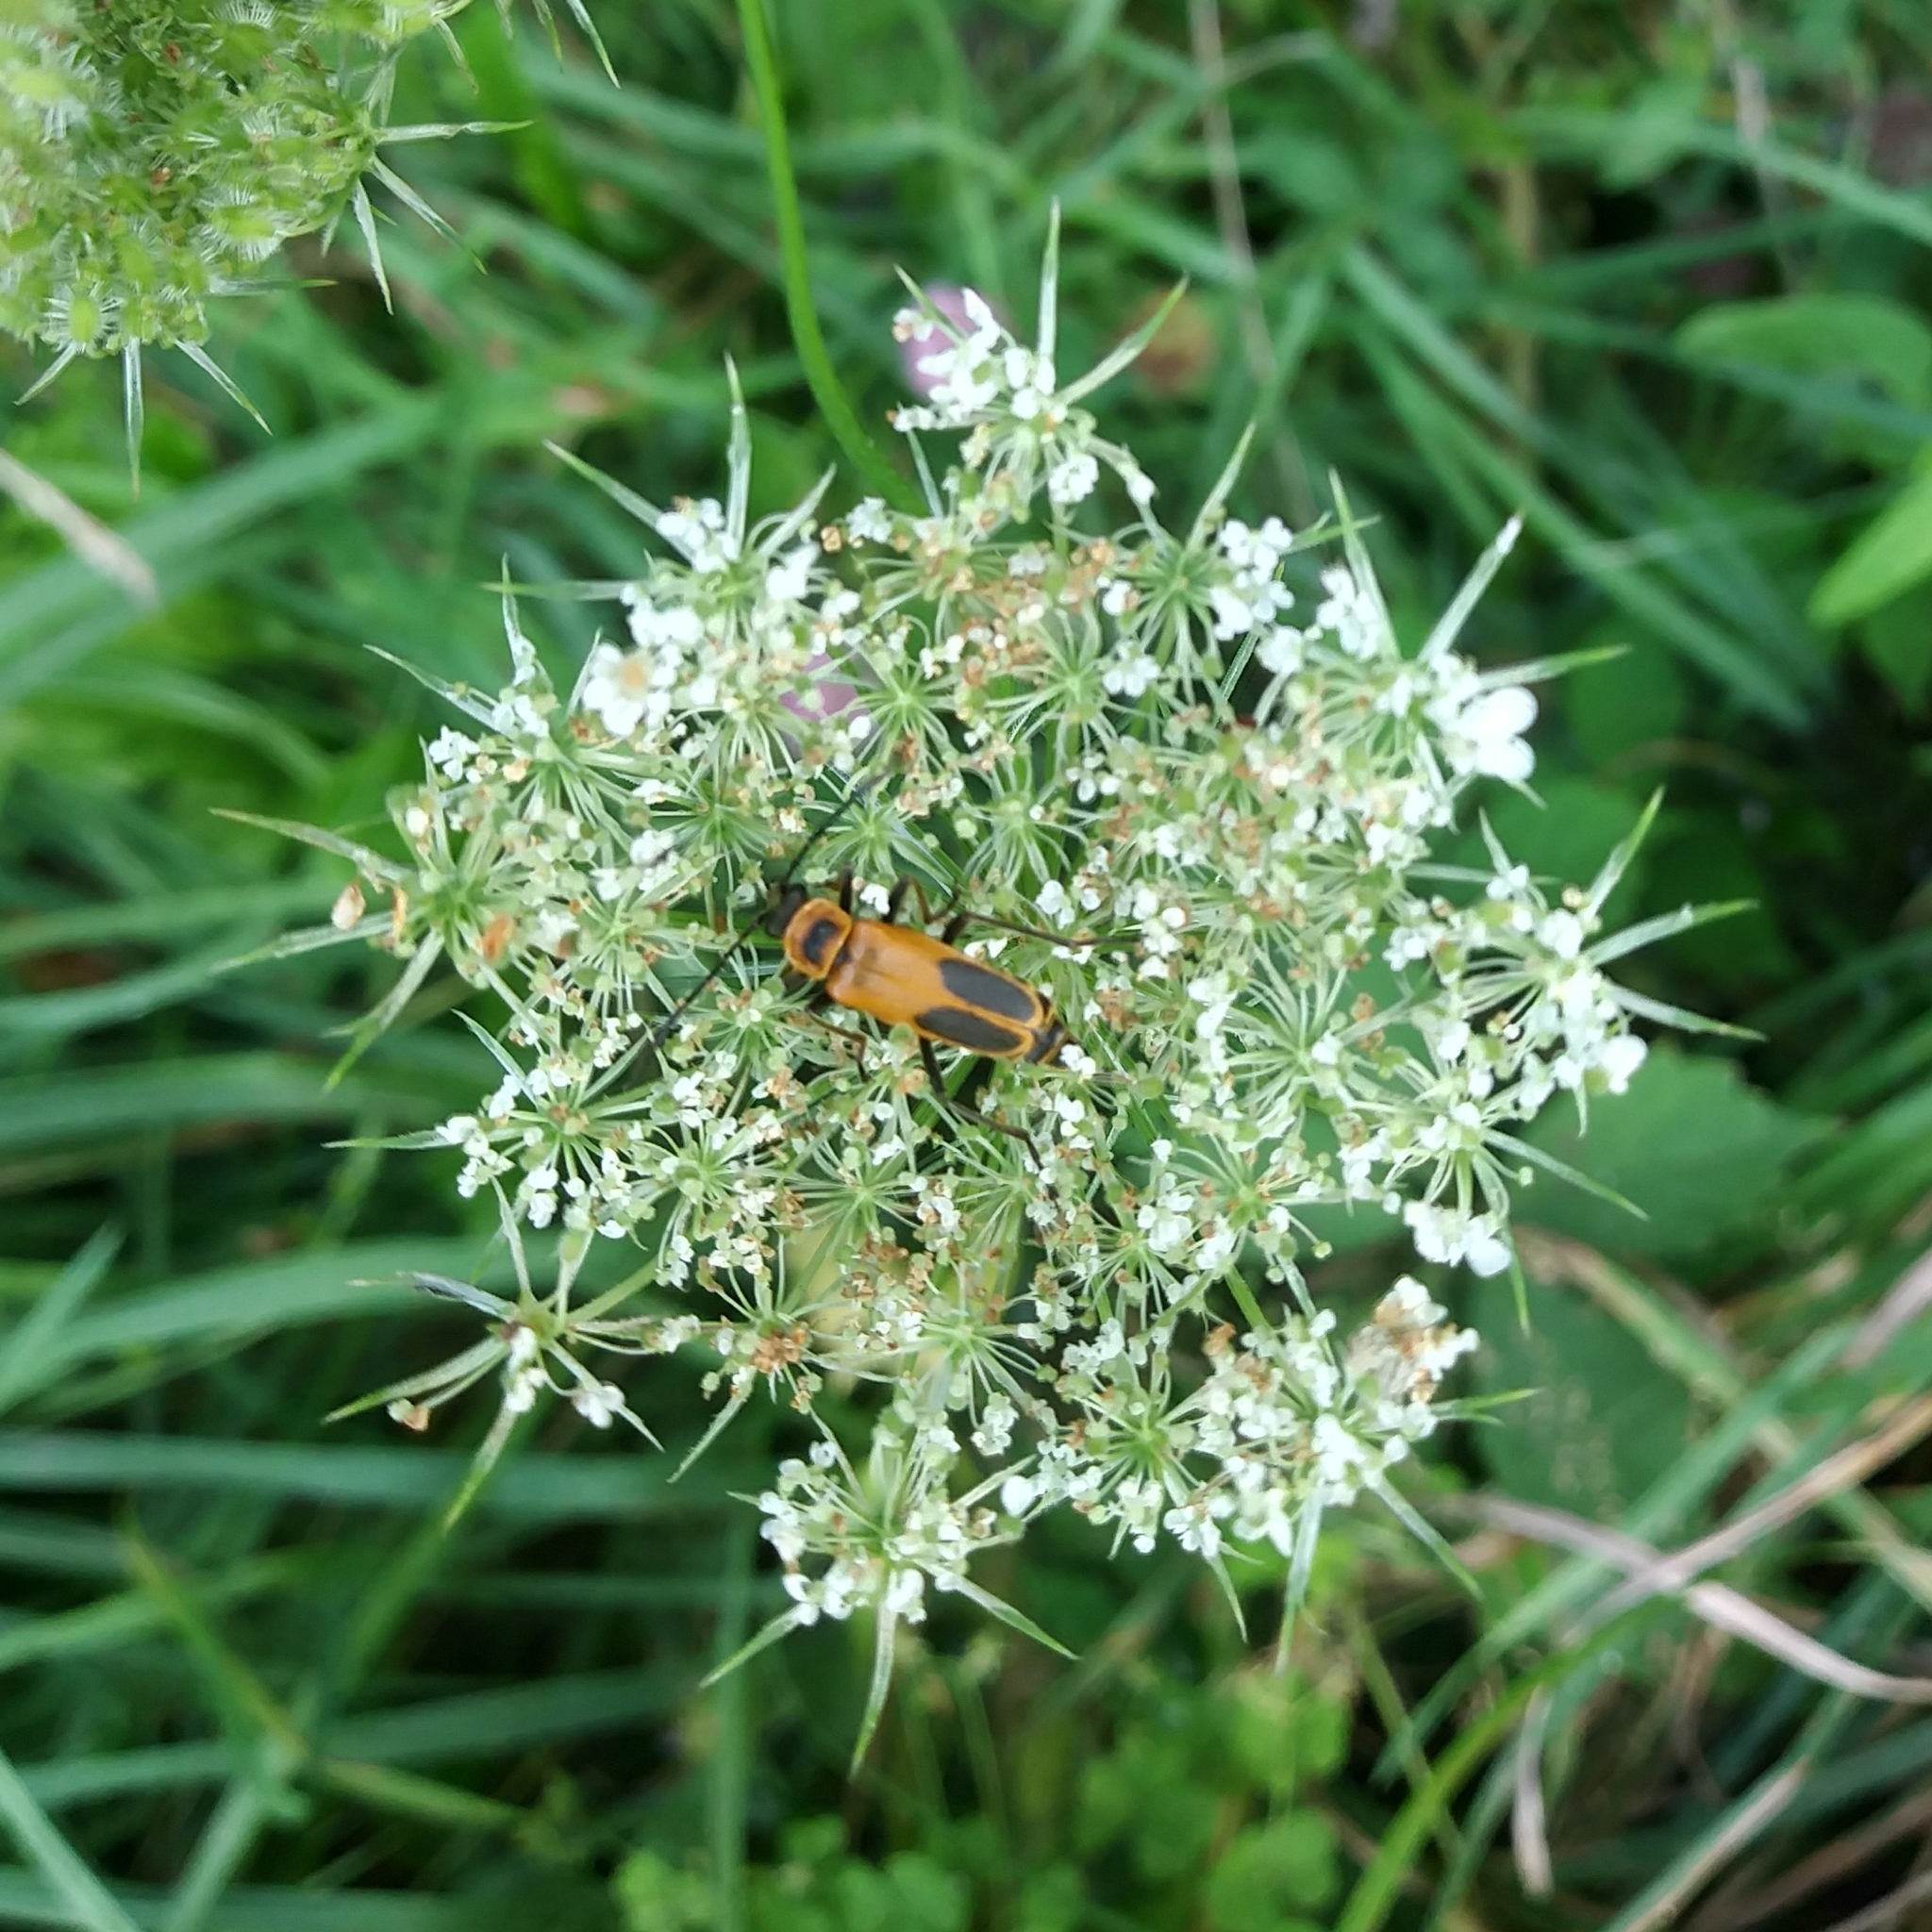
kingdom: Animalia
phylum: Arthropoda
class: Insecta
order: Coleoptera
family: Cantharidae
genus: Chauliognathus
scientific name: Chauliognathus pensylvanicus
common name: Goldenrod soldier beetle
